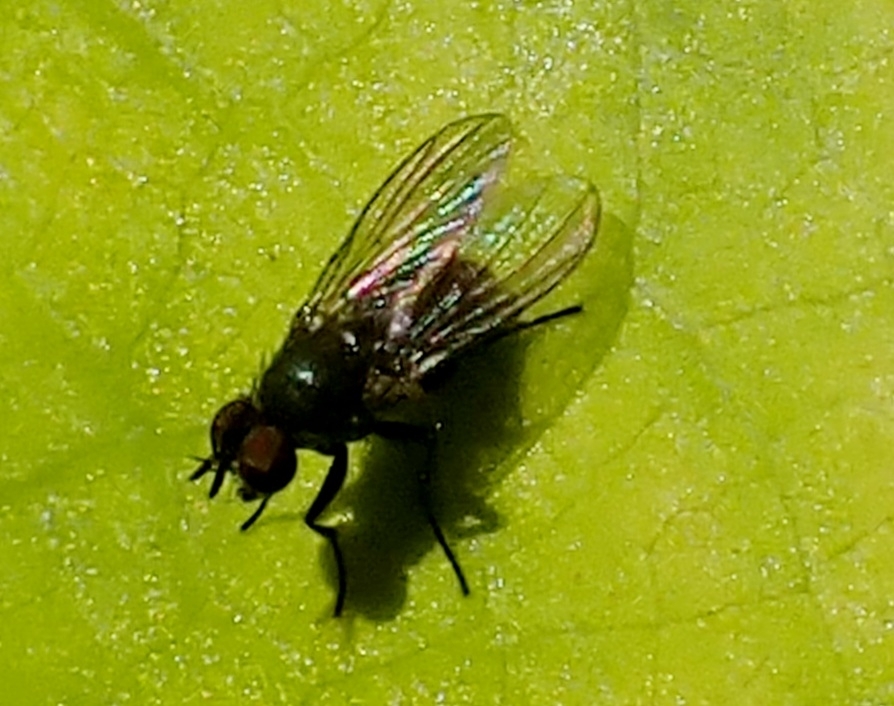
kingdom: Animalia
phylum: Arthropoda
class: Insecta
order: Diptera
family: Muscidae
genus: Coenosia
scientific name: Coenosia agromyzina
